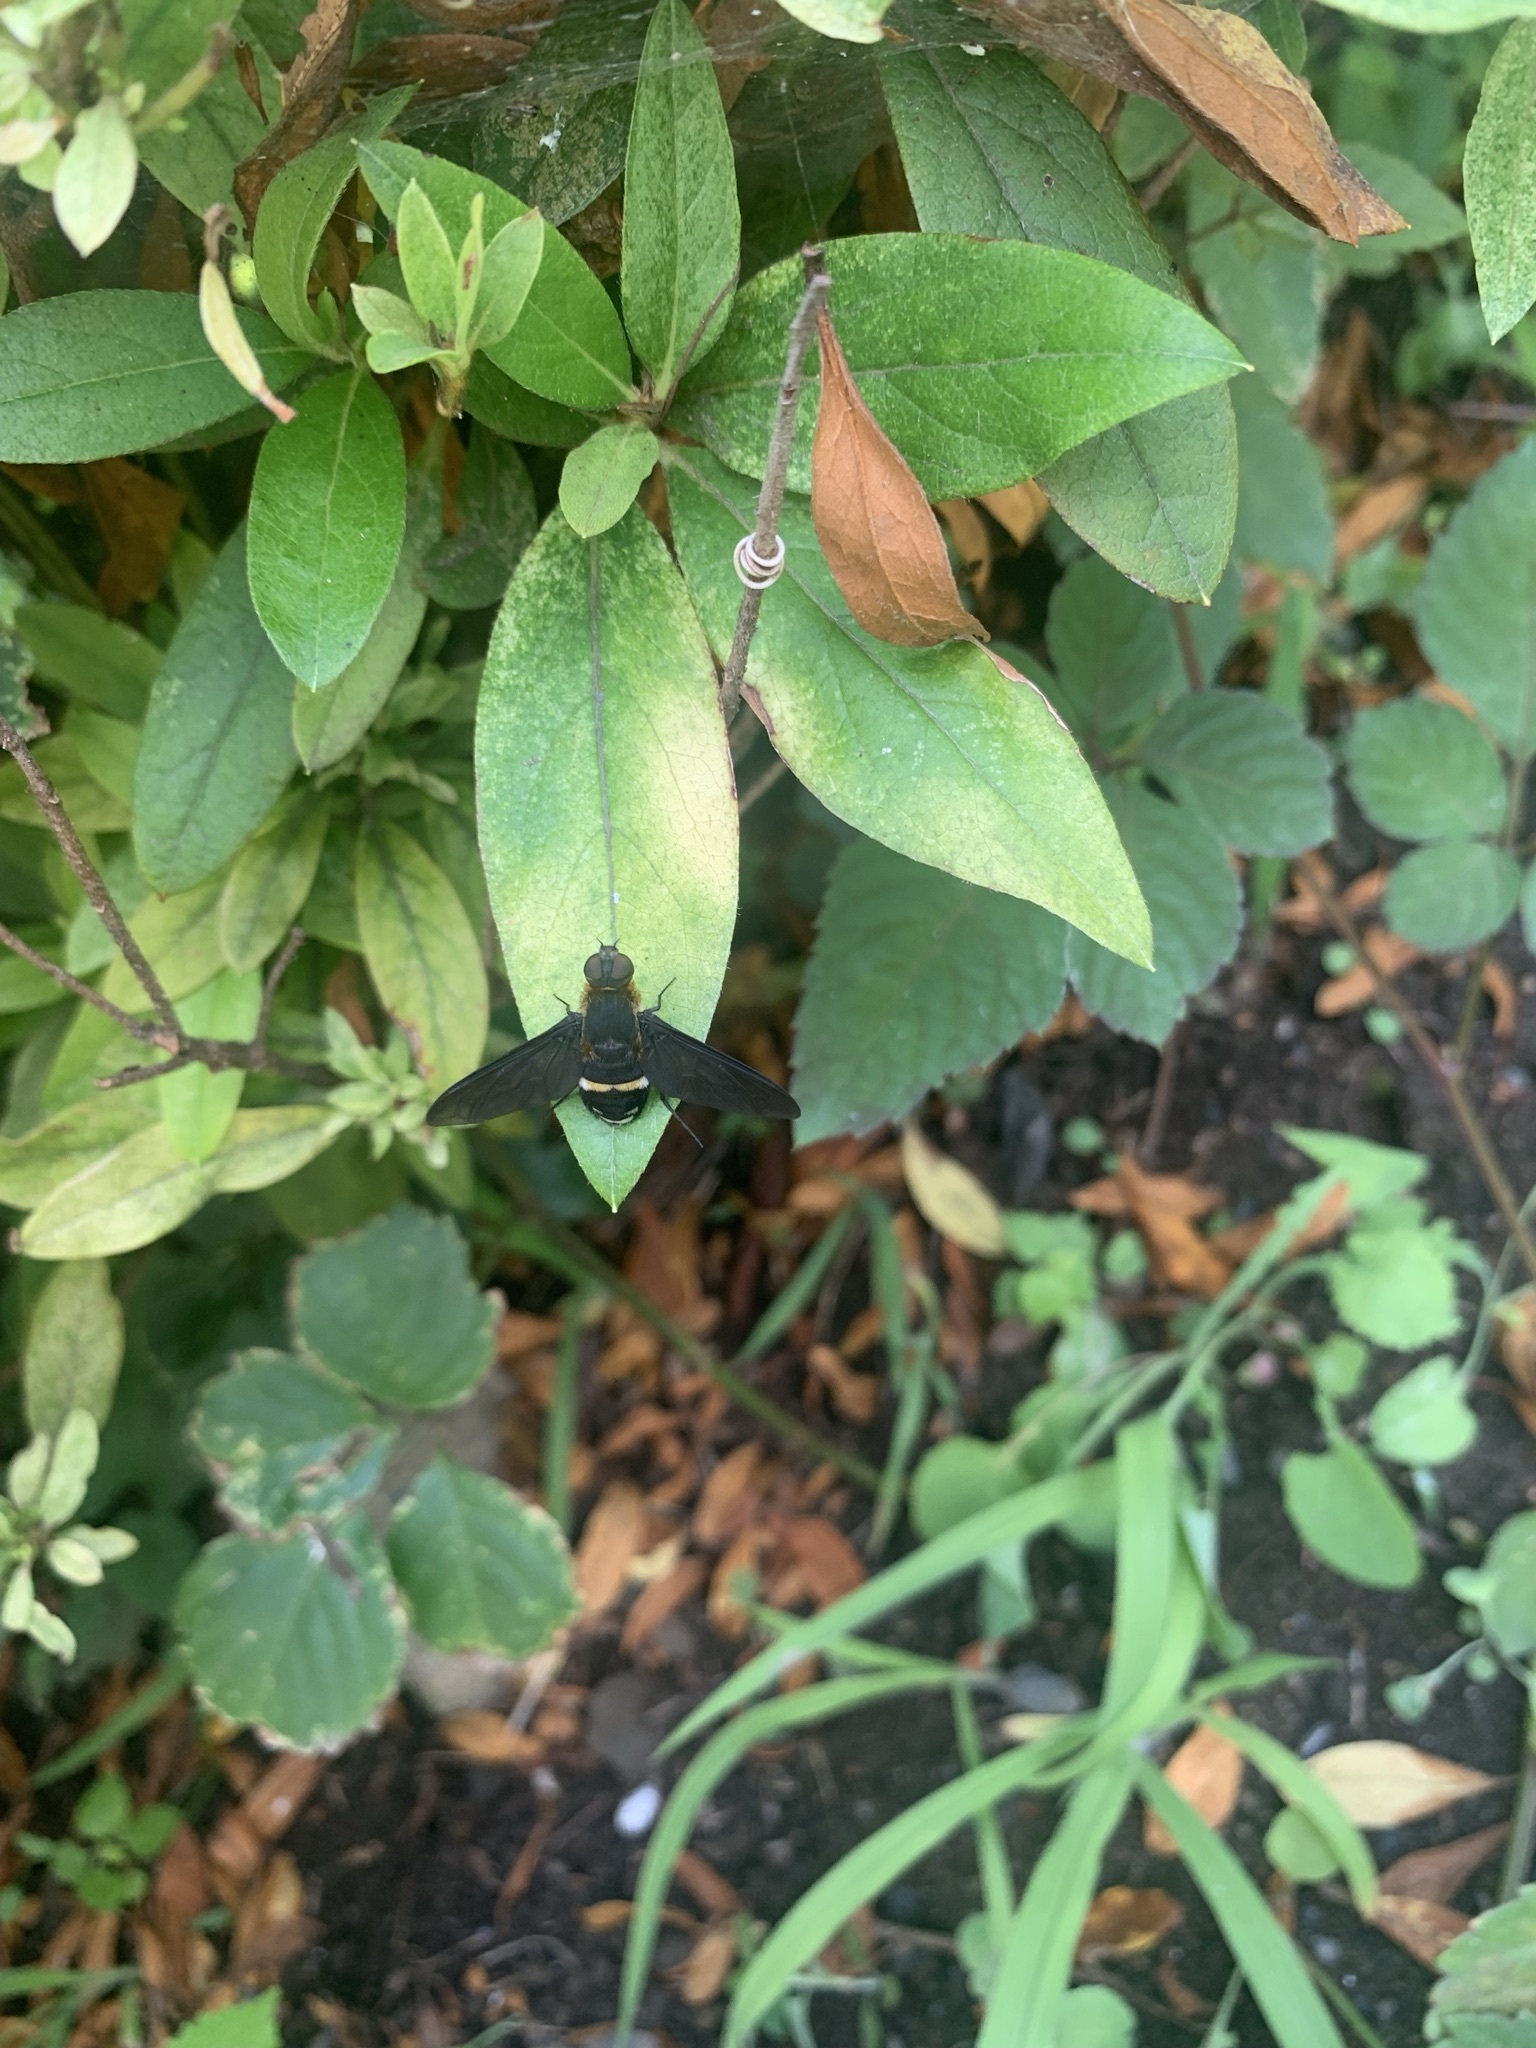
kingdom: Animalia
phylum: Arthropoda
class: Insecta
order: Diptera
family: Bombyliidae
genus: Ligyra
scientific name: Ligyra tantalus
